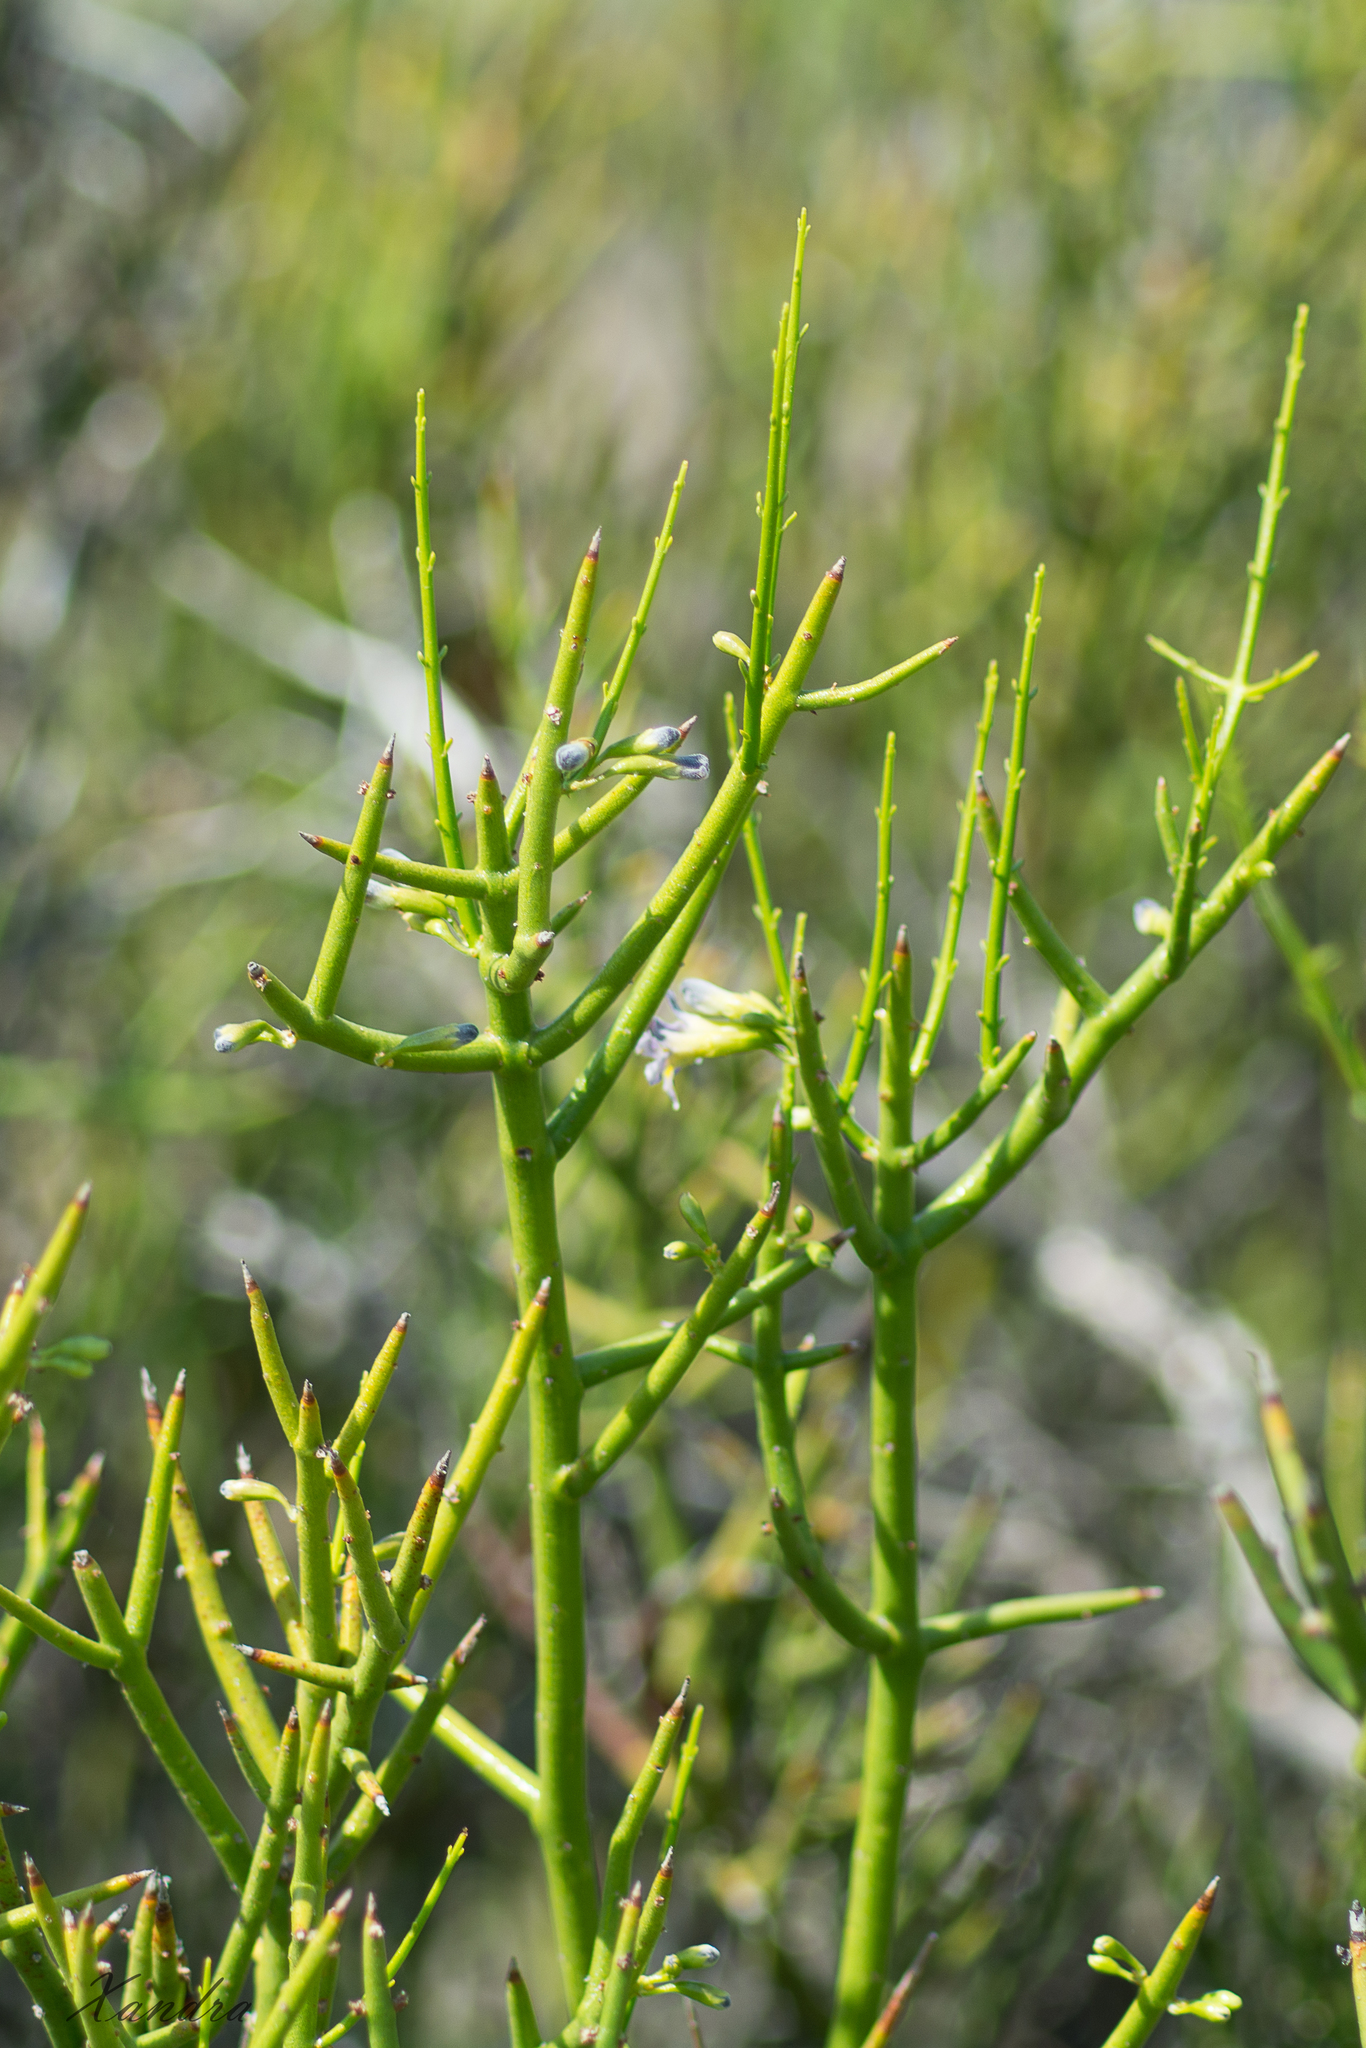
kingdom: Plantae
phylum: Tracheophyta
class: Magnoliopsida
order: Lamiales
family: Plantaginaceae
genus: Monttea
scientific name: Monttea aphylla
